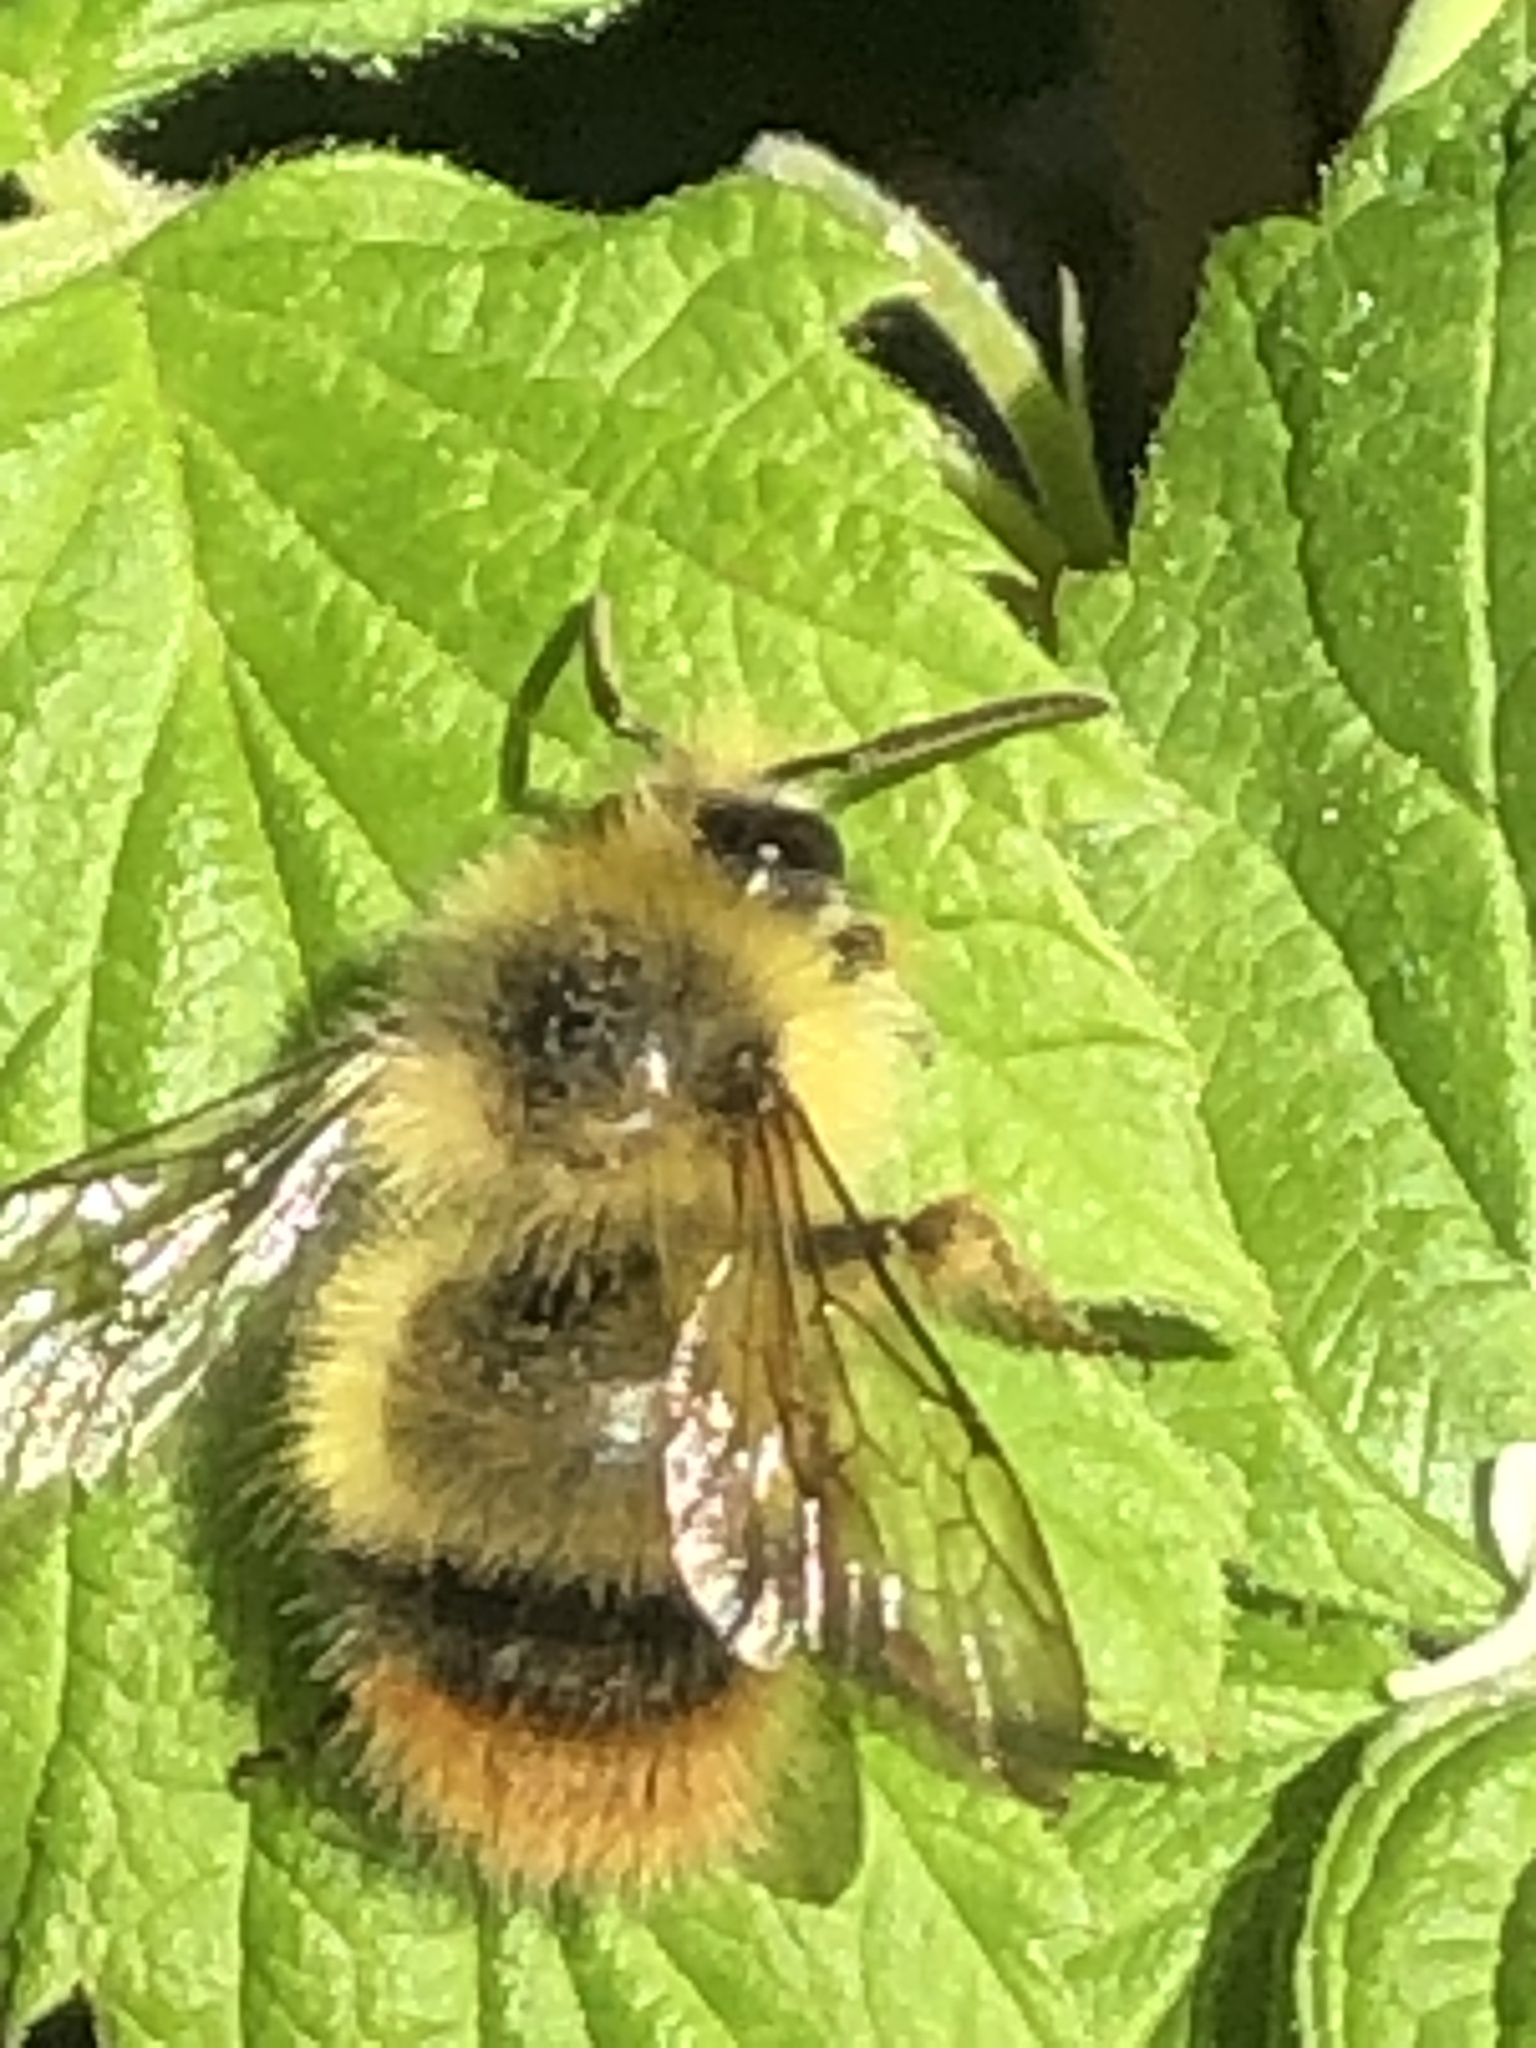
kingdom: Animalia
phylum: Arthropoda
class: Insecta
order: Hymenoptera
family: Apidae
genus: Bombus
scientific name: Bombus mixtus
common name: Fuzzy-horned bumble bee
